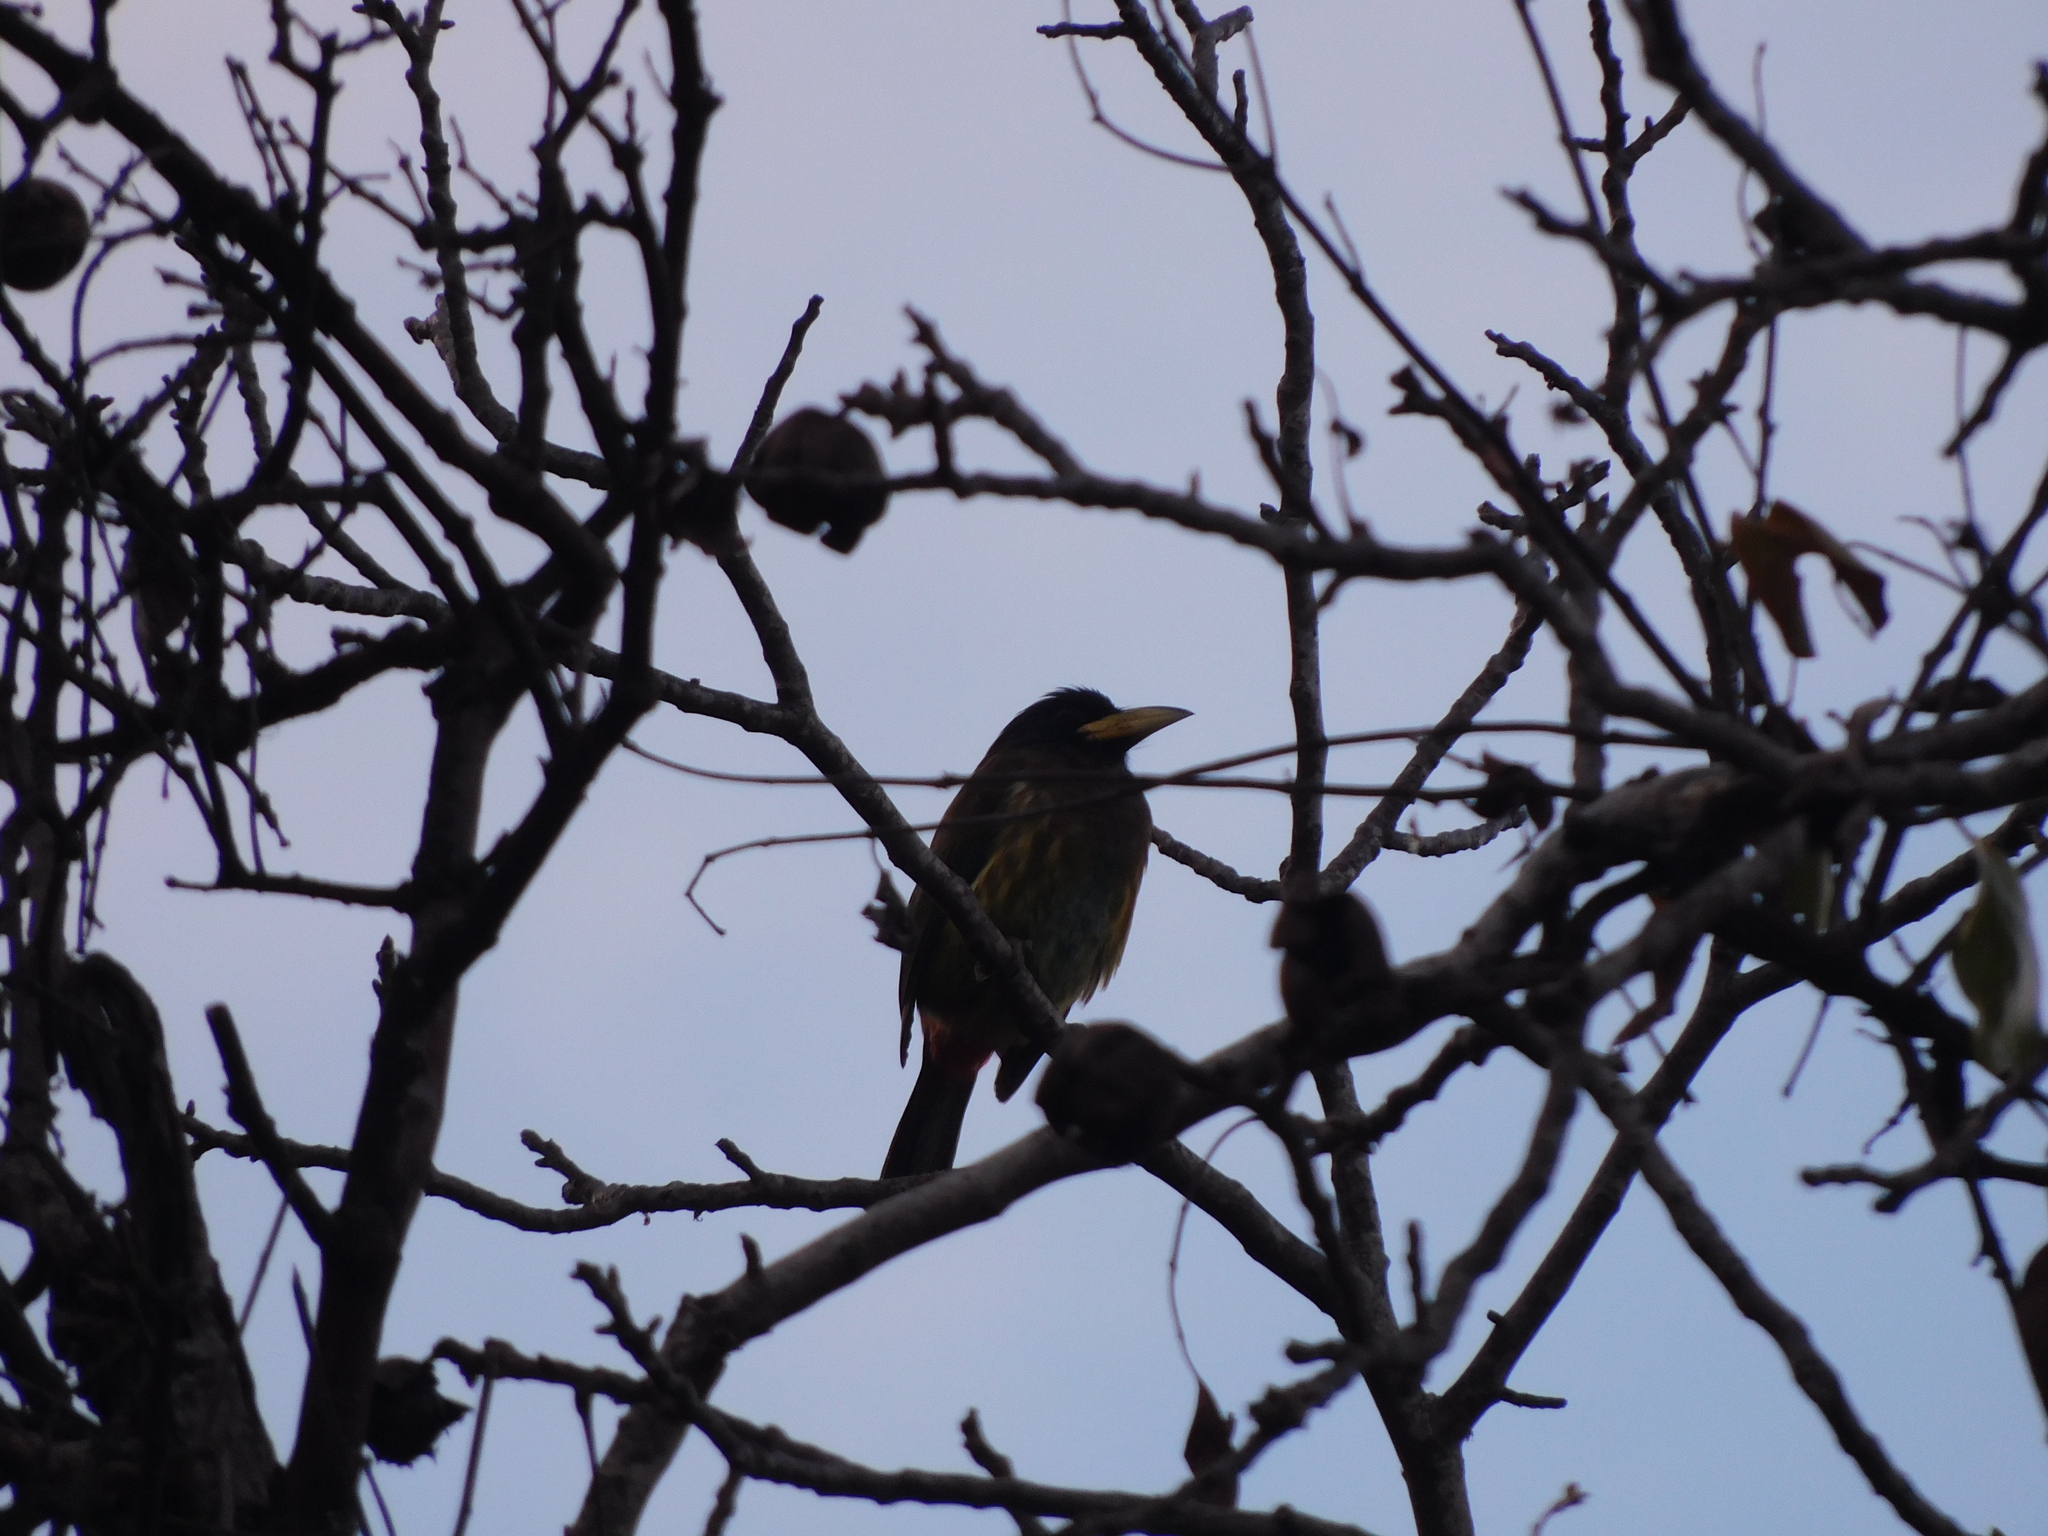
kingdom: Animalia
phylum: Chordata
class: Aves
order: Piciformes
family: Megalaimidae
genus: Psilopogon
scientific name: Psilopogon virens
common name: Great barbet
